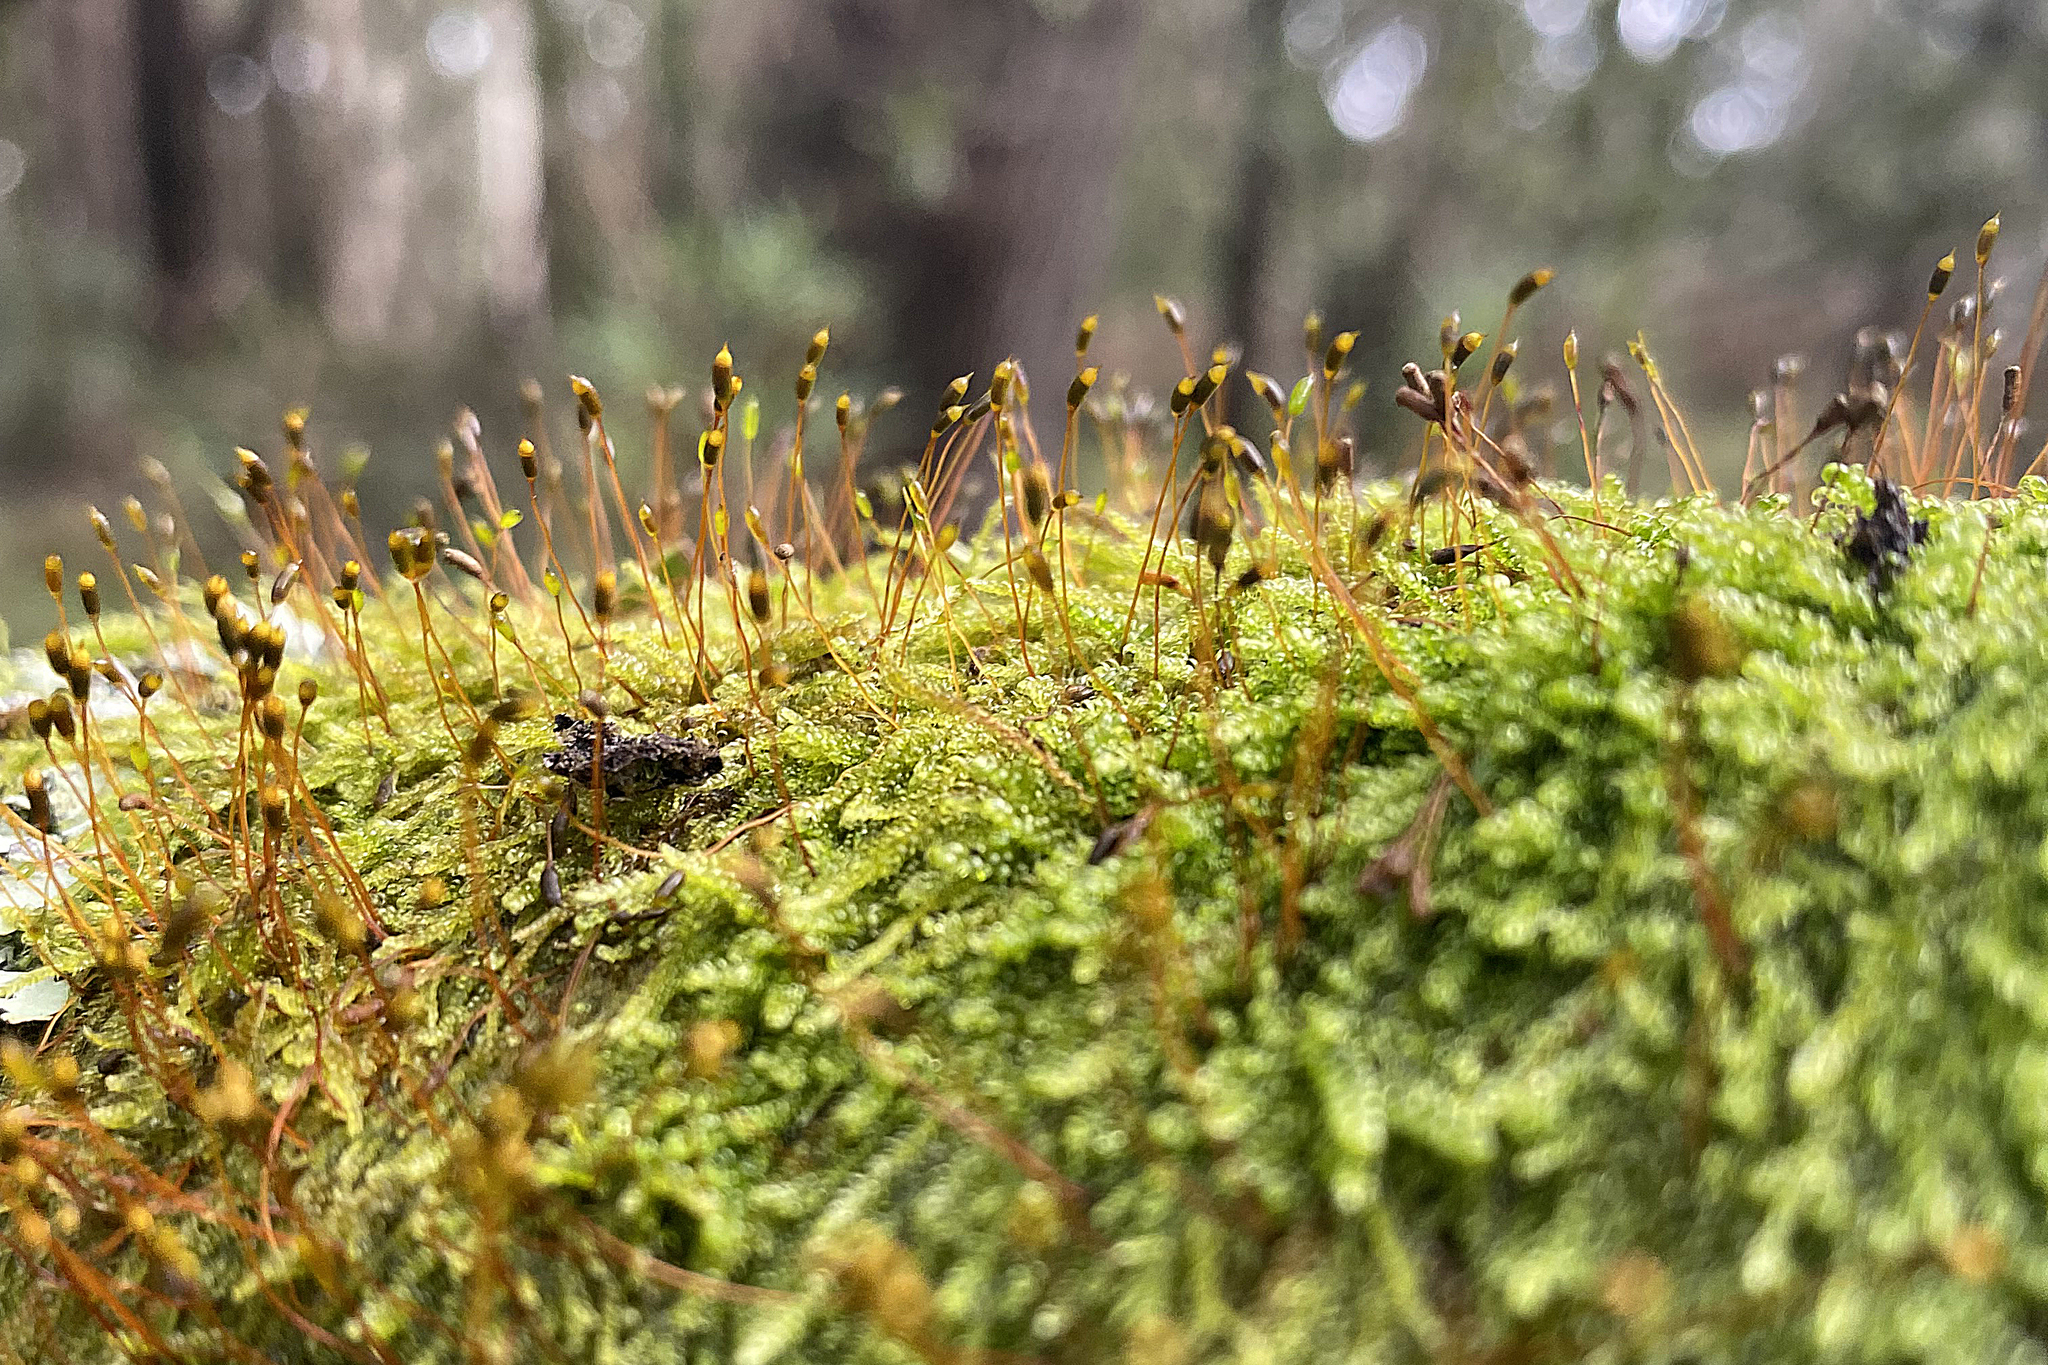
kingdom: Plantae
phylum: Bryophyta
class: Bryopsida
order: Hypnales
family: Hypnaceae
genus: Hypnum
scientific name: Hypnum cupressiforme
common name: Cypress-leaved plait-moss
